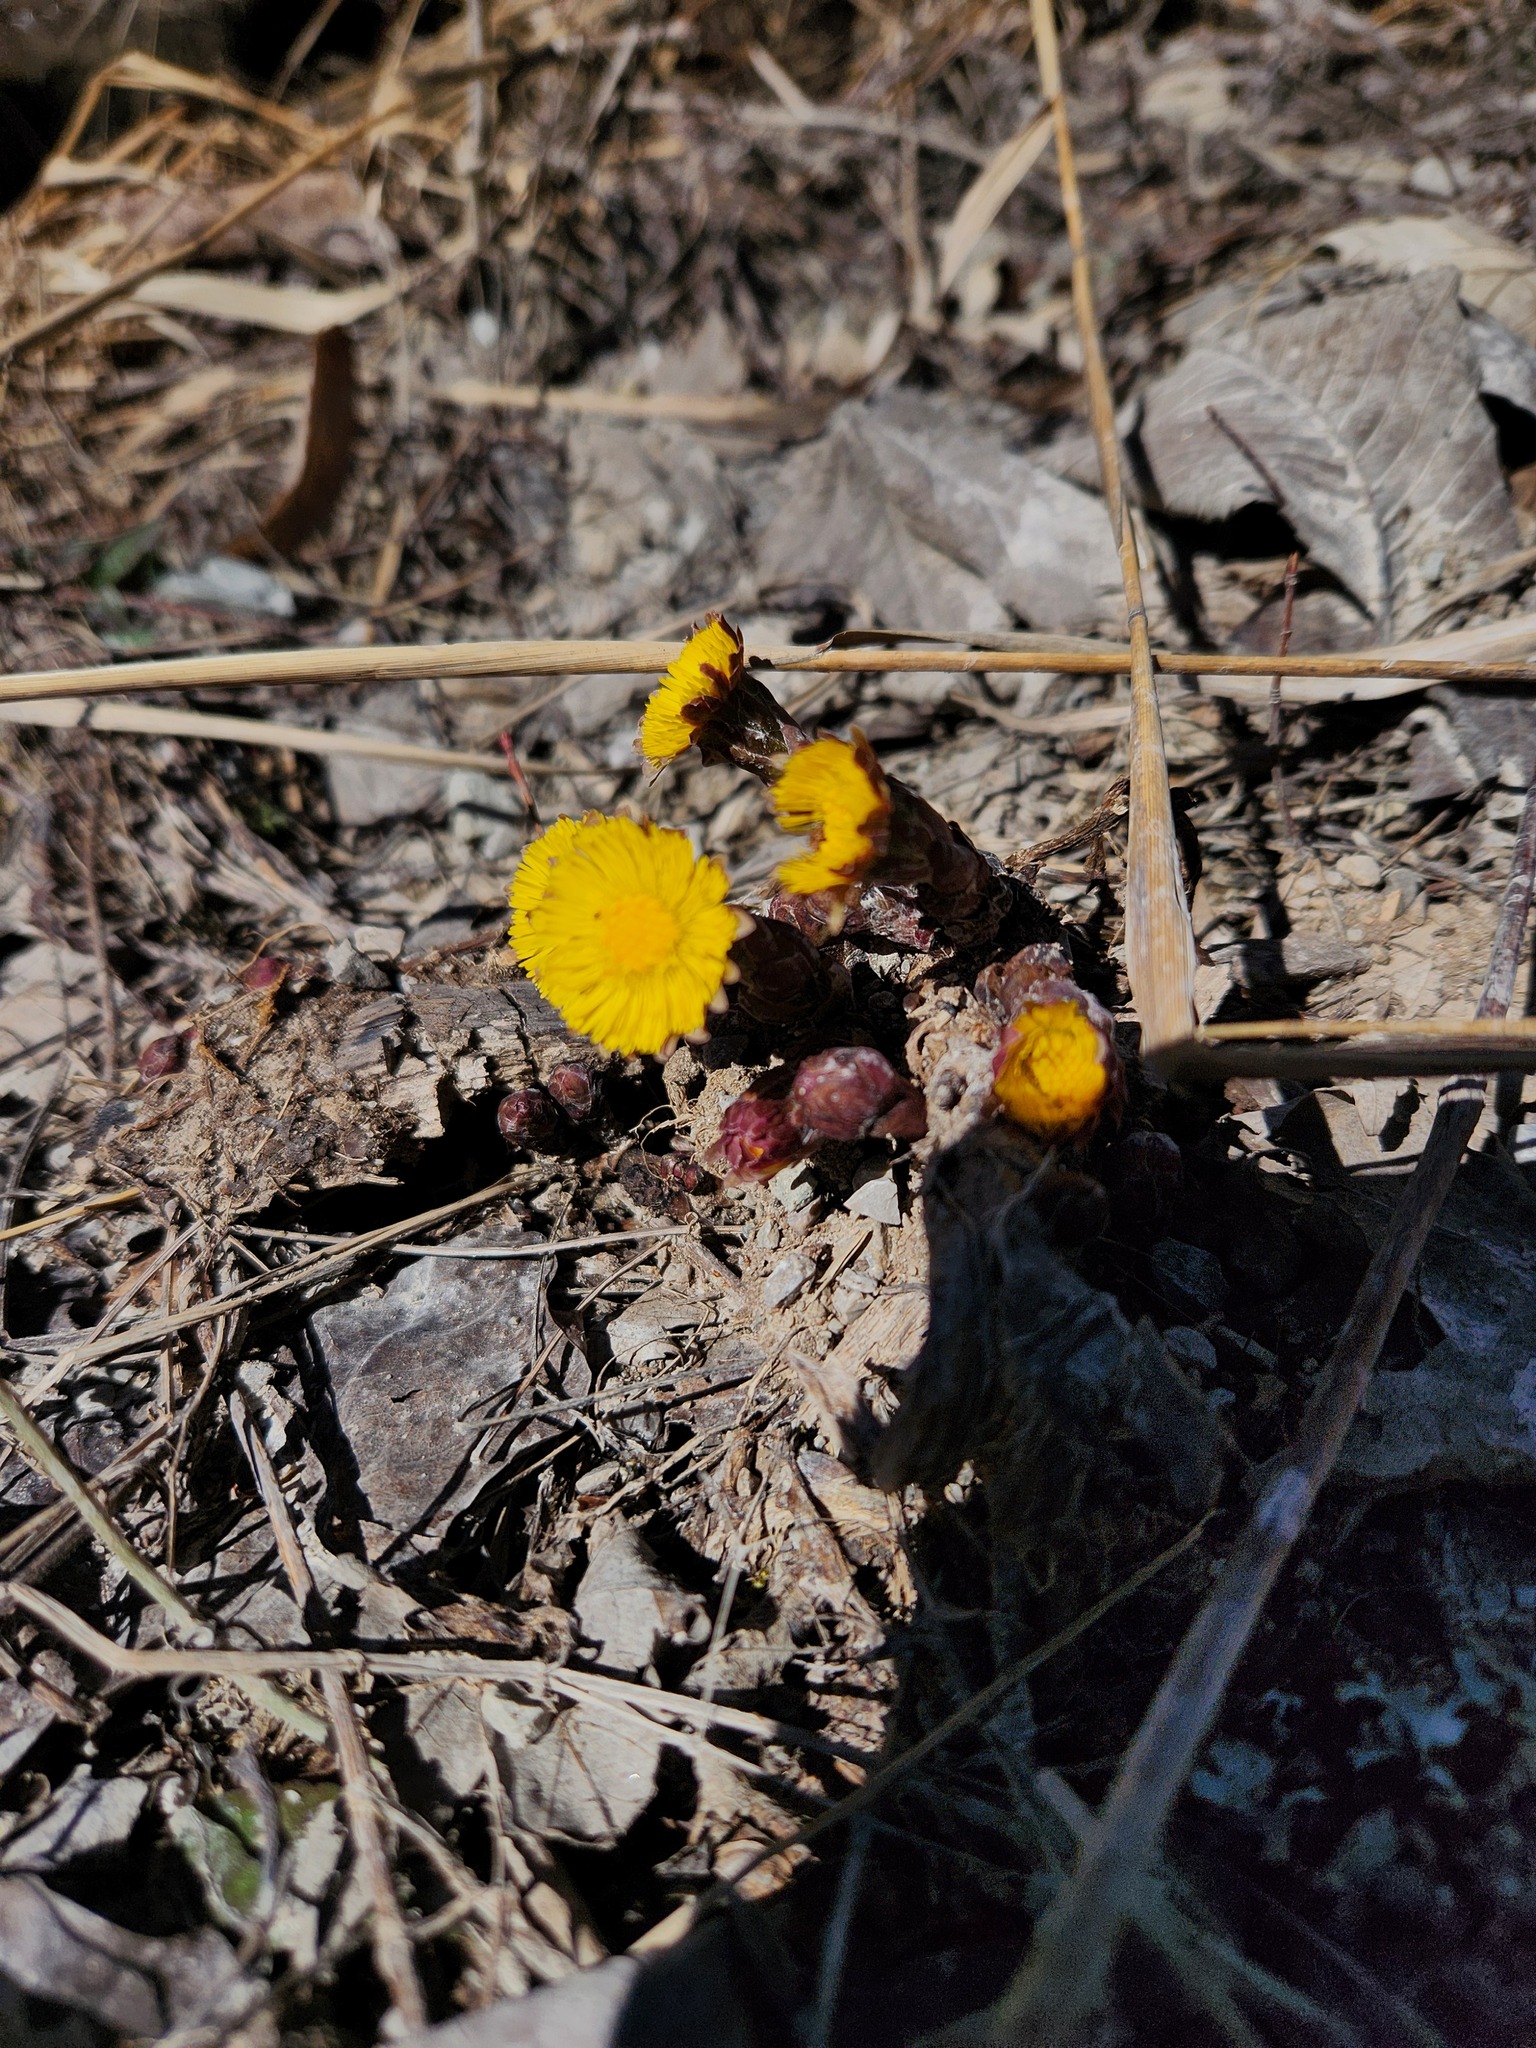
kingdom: Plantae
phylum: Tracheophyta
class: Magnoliopsida
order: Asterales
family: Asteraceae
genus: Tussilago
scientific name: Tussilago farfara
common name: Coltsfoot
